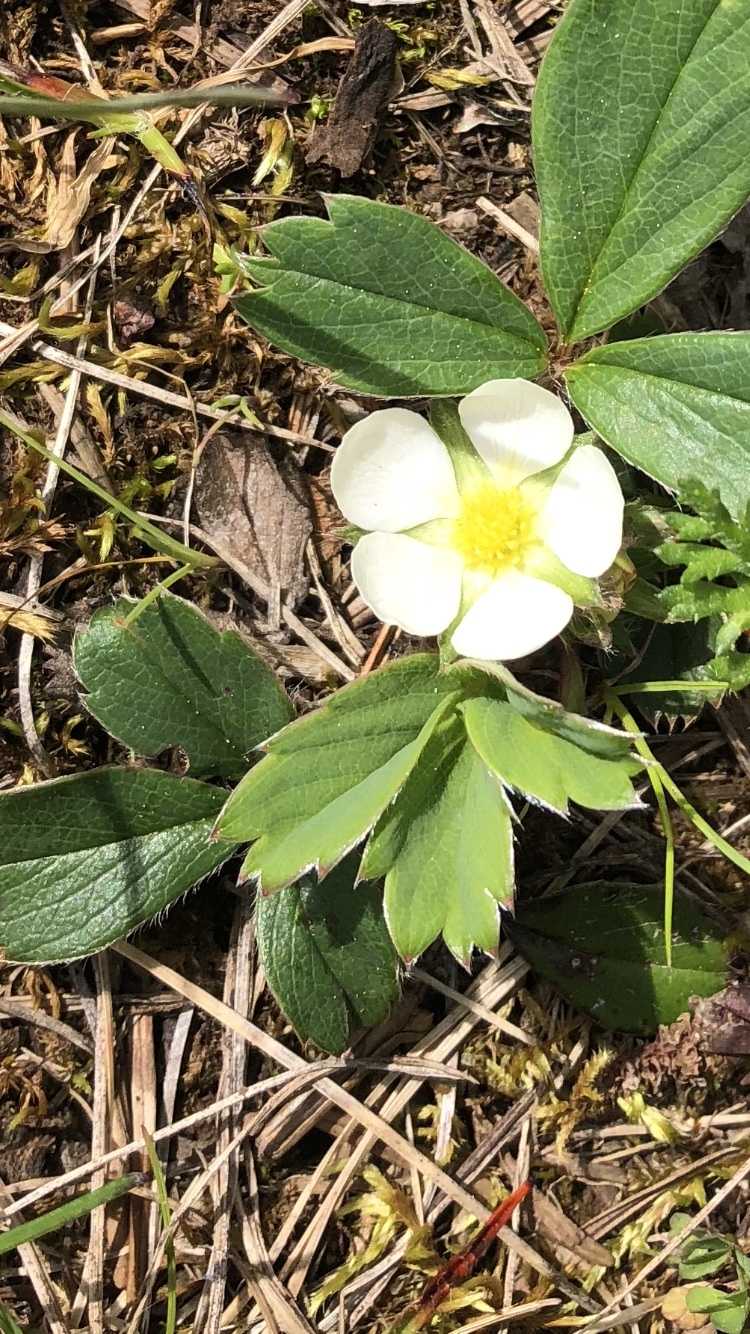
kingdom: Plantae
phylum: Tracheophyta
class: Magnoliopsida
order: Rosales
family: Rosaceae
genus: Fragaria
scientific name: Fragaria virginiana
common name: Thickleaved wild strawberry
